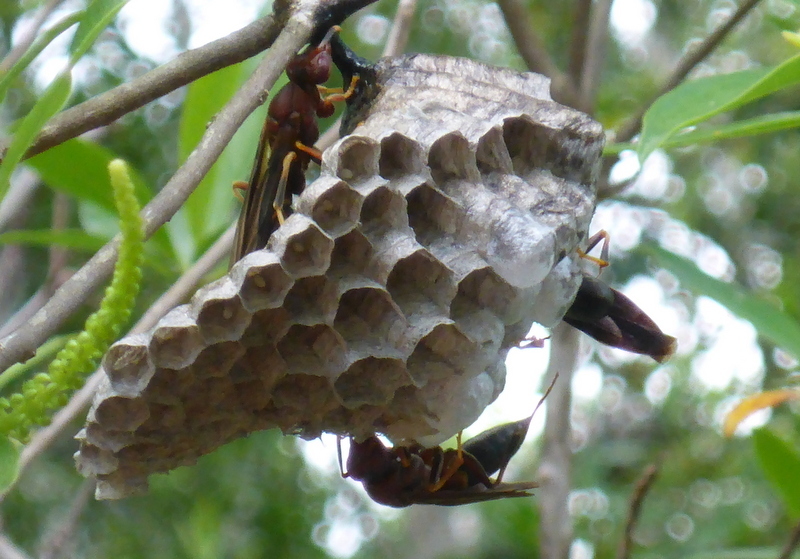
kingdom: Animalia
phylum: Arthropoda
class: Insecta
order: Hymenoptera
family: Eumenidae
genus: Polistes
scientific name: Polistes annularis
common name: Ringed paper wasp
